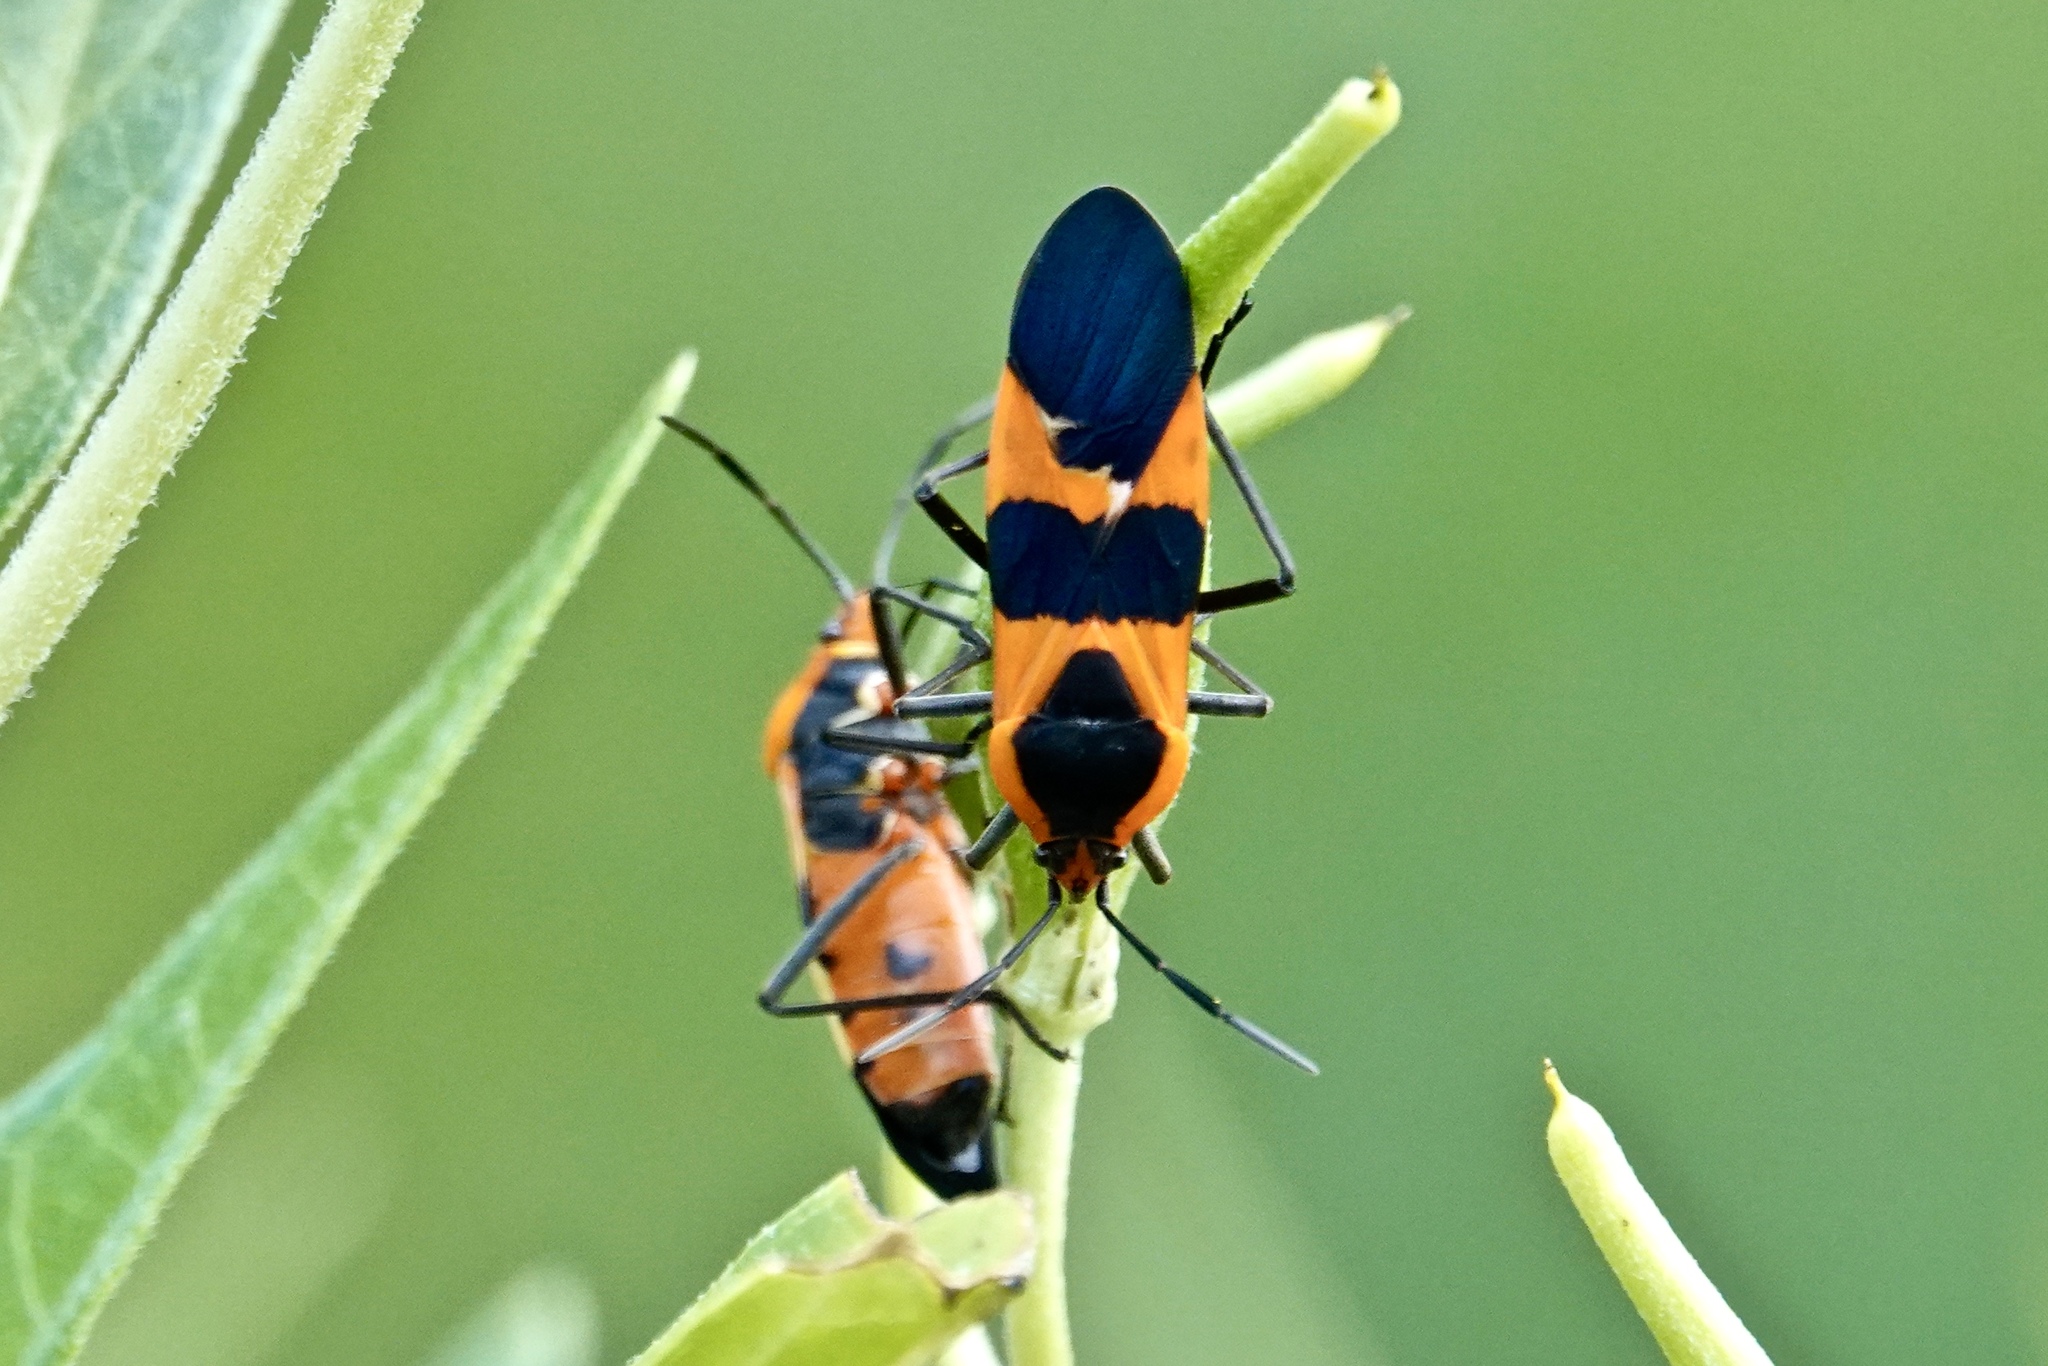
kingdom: Animalia
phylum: Arthropoda
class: Insecta
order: Hemiptera
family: Lygaeidae
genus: Oncopeltus
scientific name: Oncopeltus fasciatus
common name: Large milkweed bug
